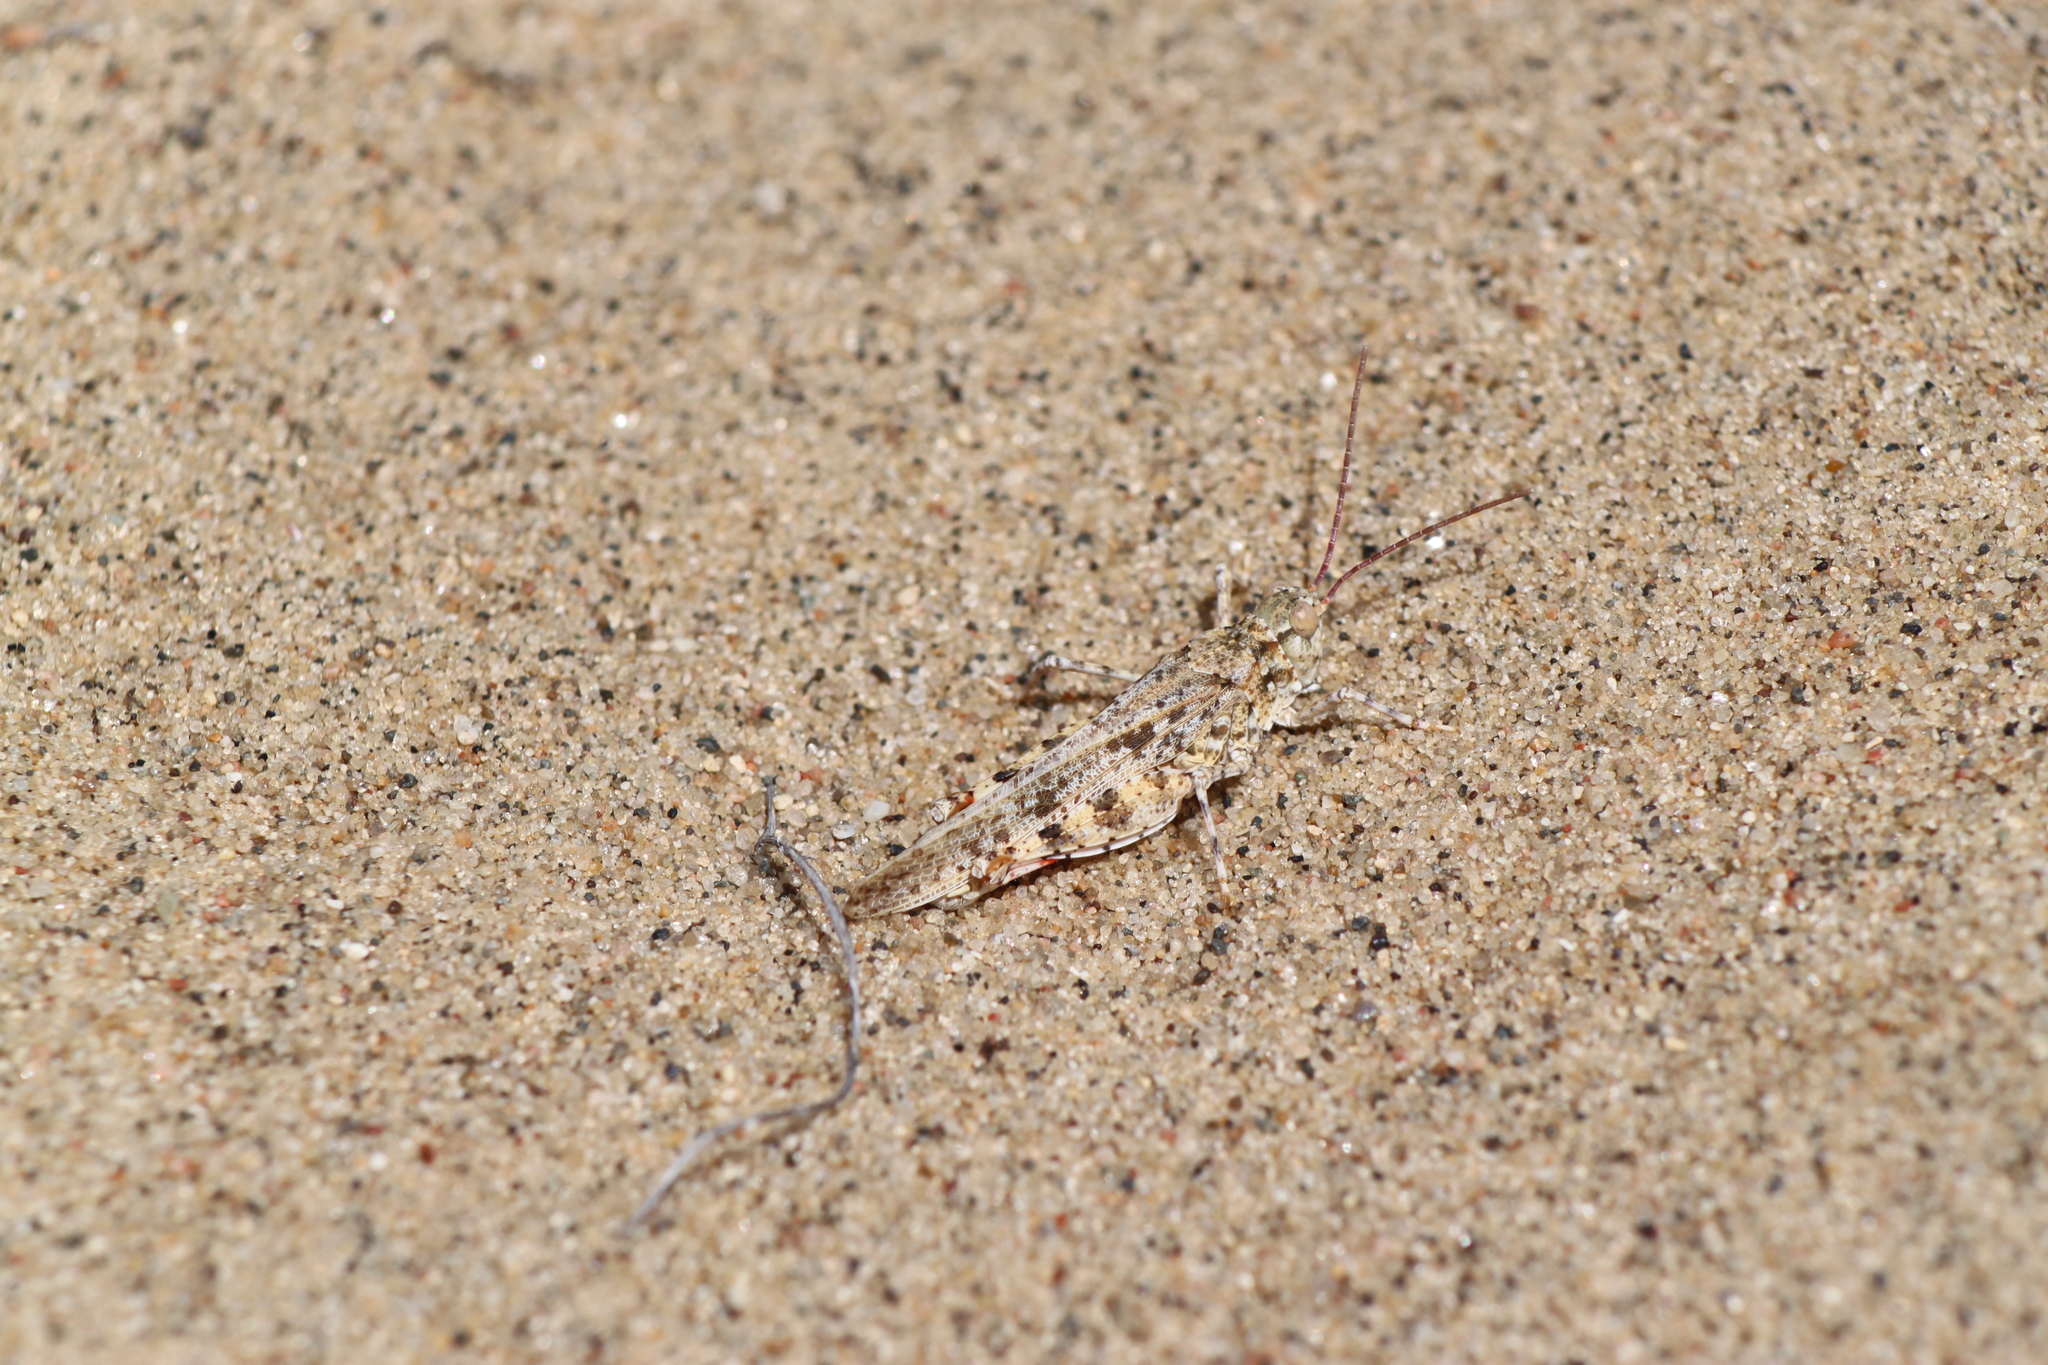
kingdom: Animalia
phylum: Arthropoda
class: Insecta
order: Orthoptera
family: Acrididae
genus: Trimerotropis
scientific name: Trimerotropis agrestis
